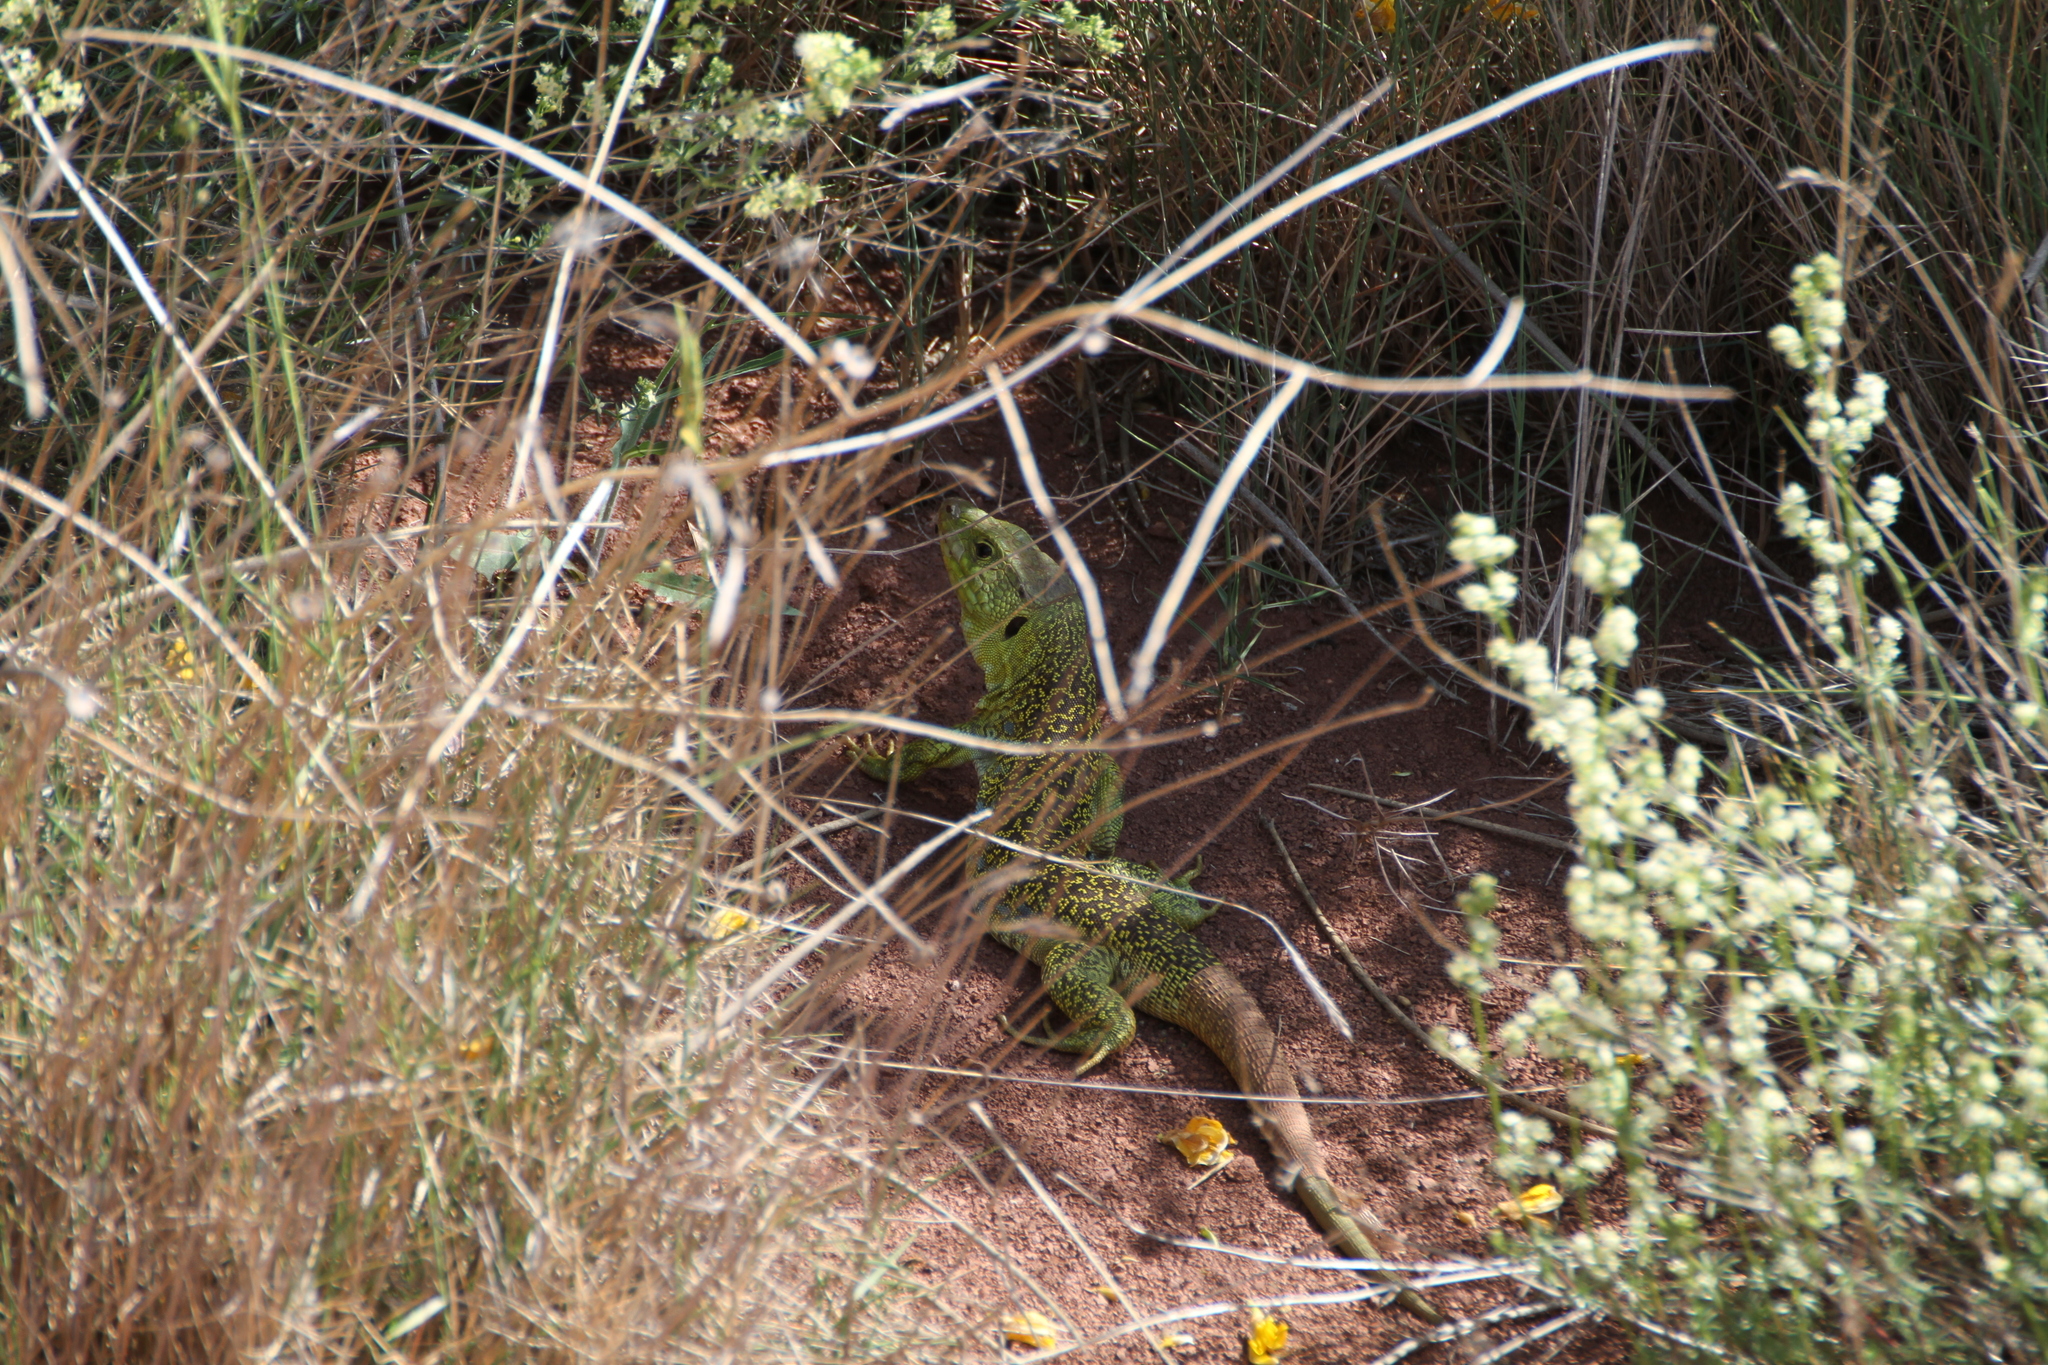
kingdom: Animalia
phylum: Chordata
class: Squamata
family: Lacertidae
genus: Timon
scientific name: Timon lepidus
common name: Ocellated lizard
